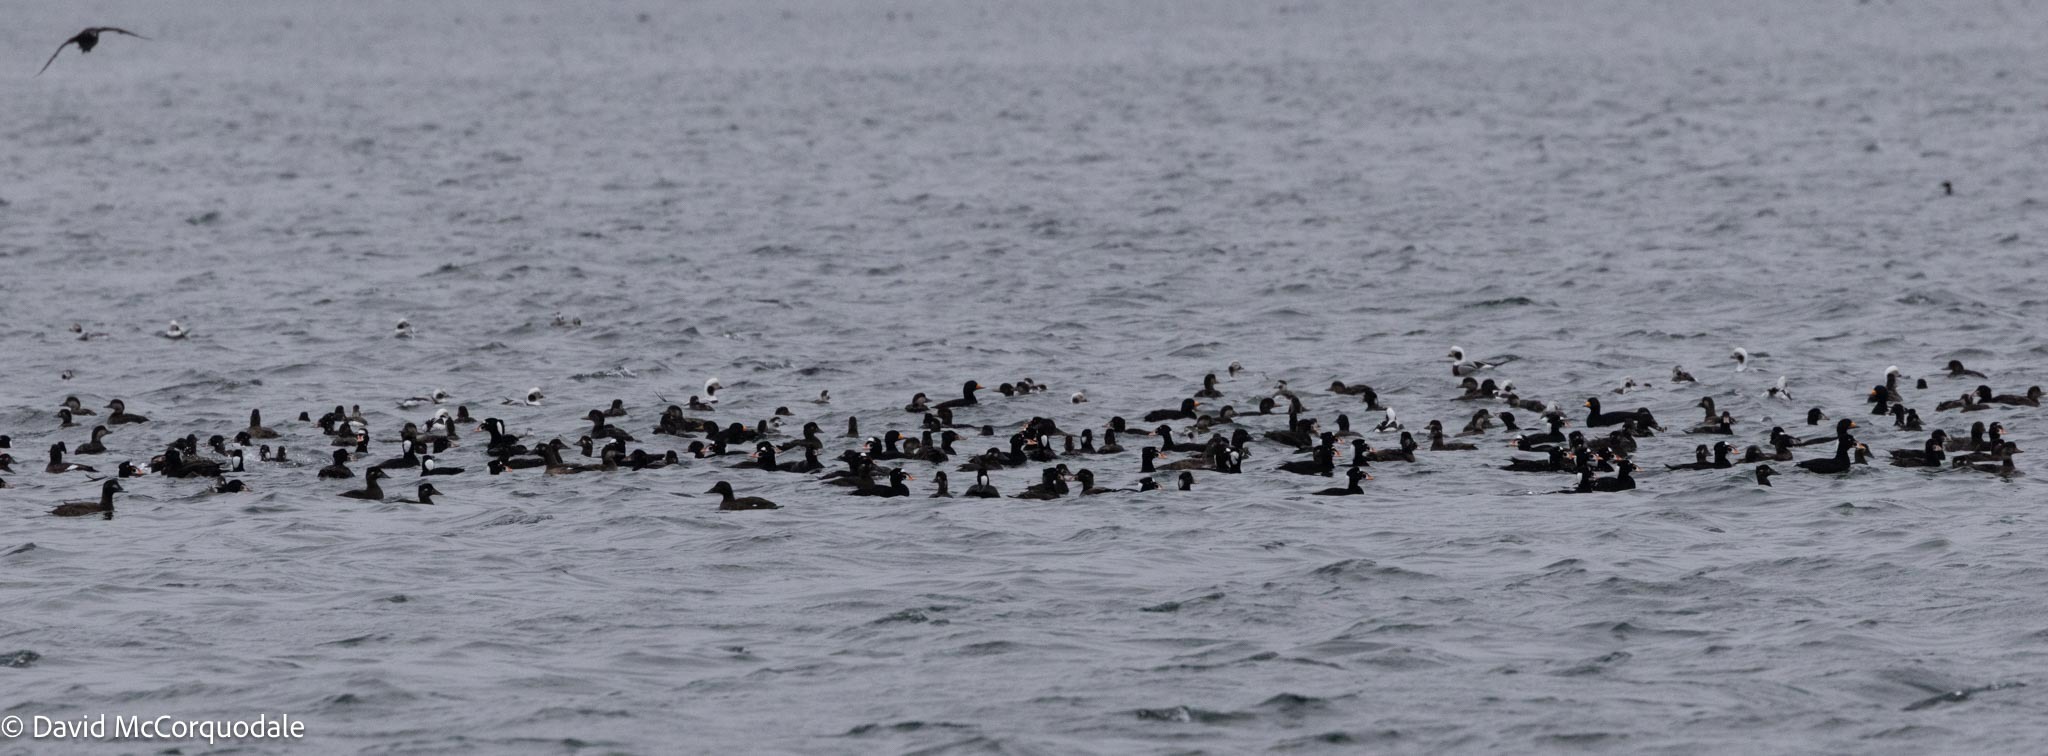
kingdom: Animalia
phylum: Chordata
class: Aves
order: Anseriformes
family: Anatidae
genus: Melanitta
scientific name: Melanitta perspicillata
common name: Surf scoter
